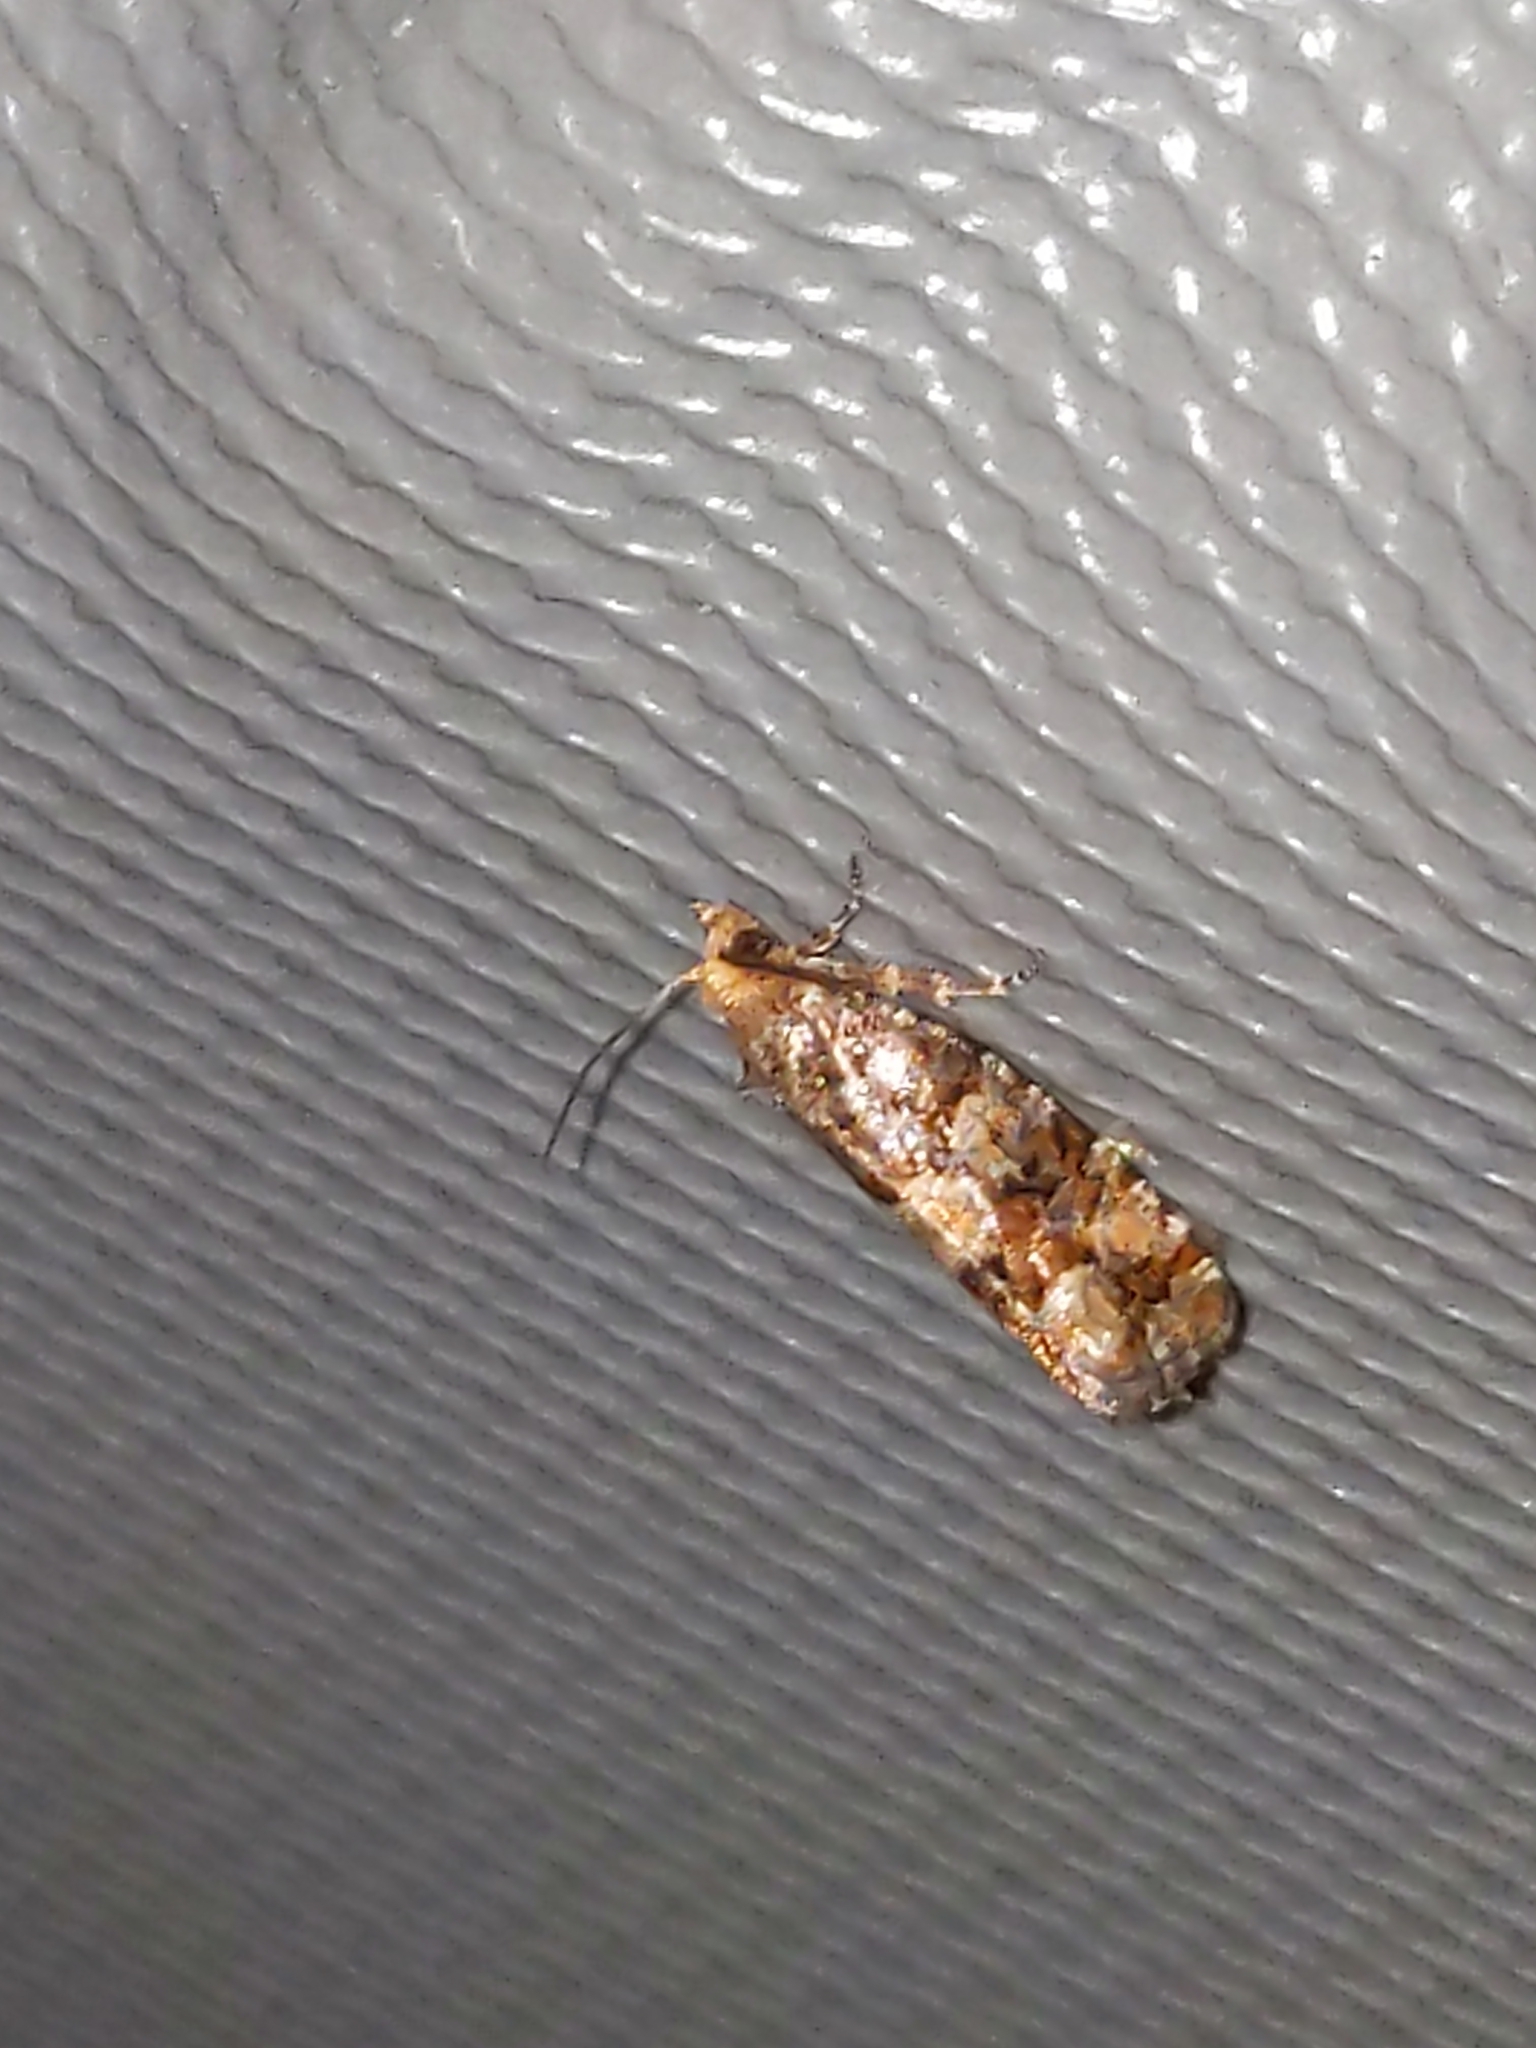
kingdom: Animalia
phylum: Arthropoda
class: Insecta
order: Lepidoptera
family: Tortricidae
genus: Eucopina
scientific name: Eucopina tocullionana
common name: White pinecone borer moth
